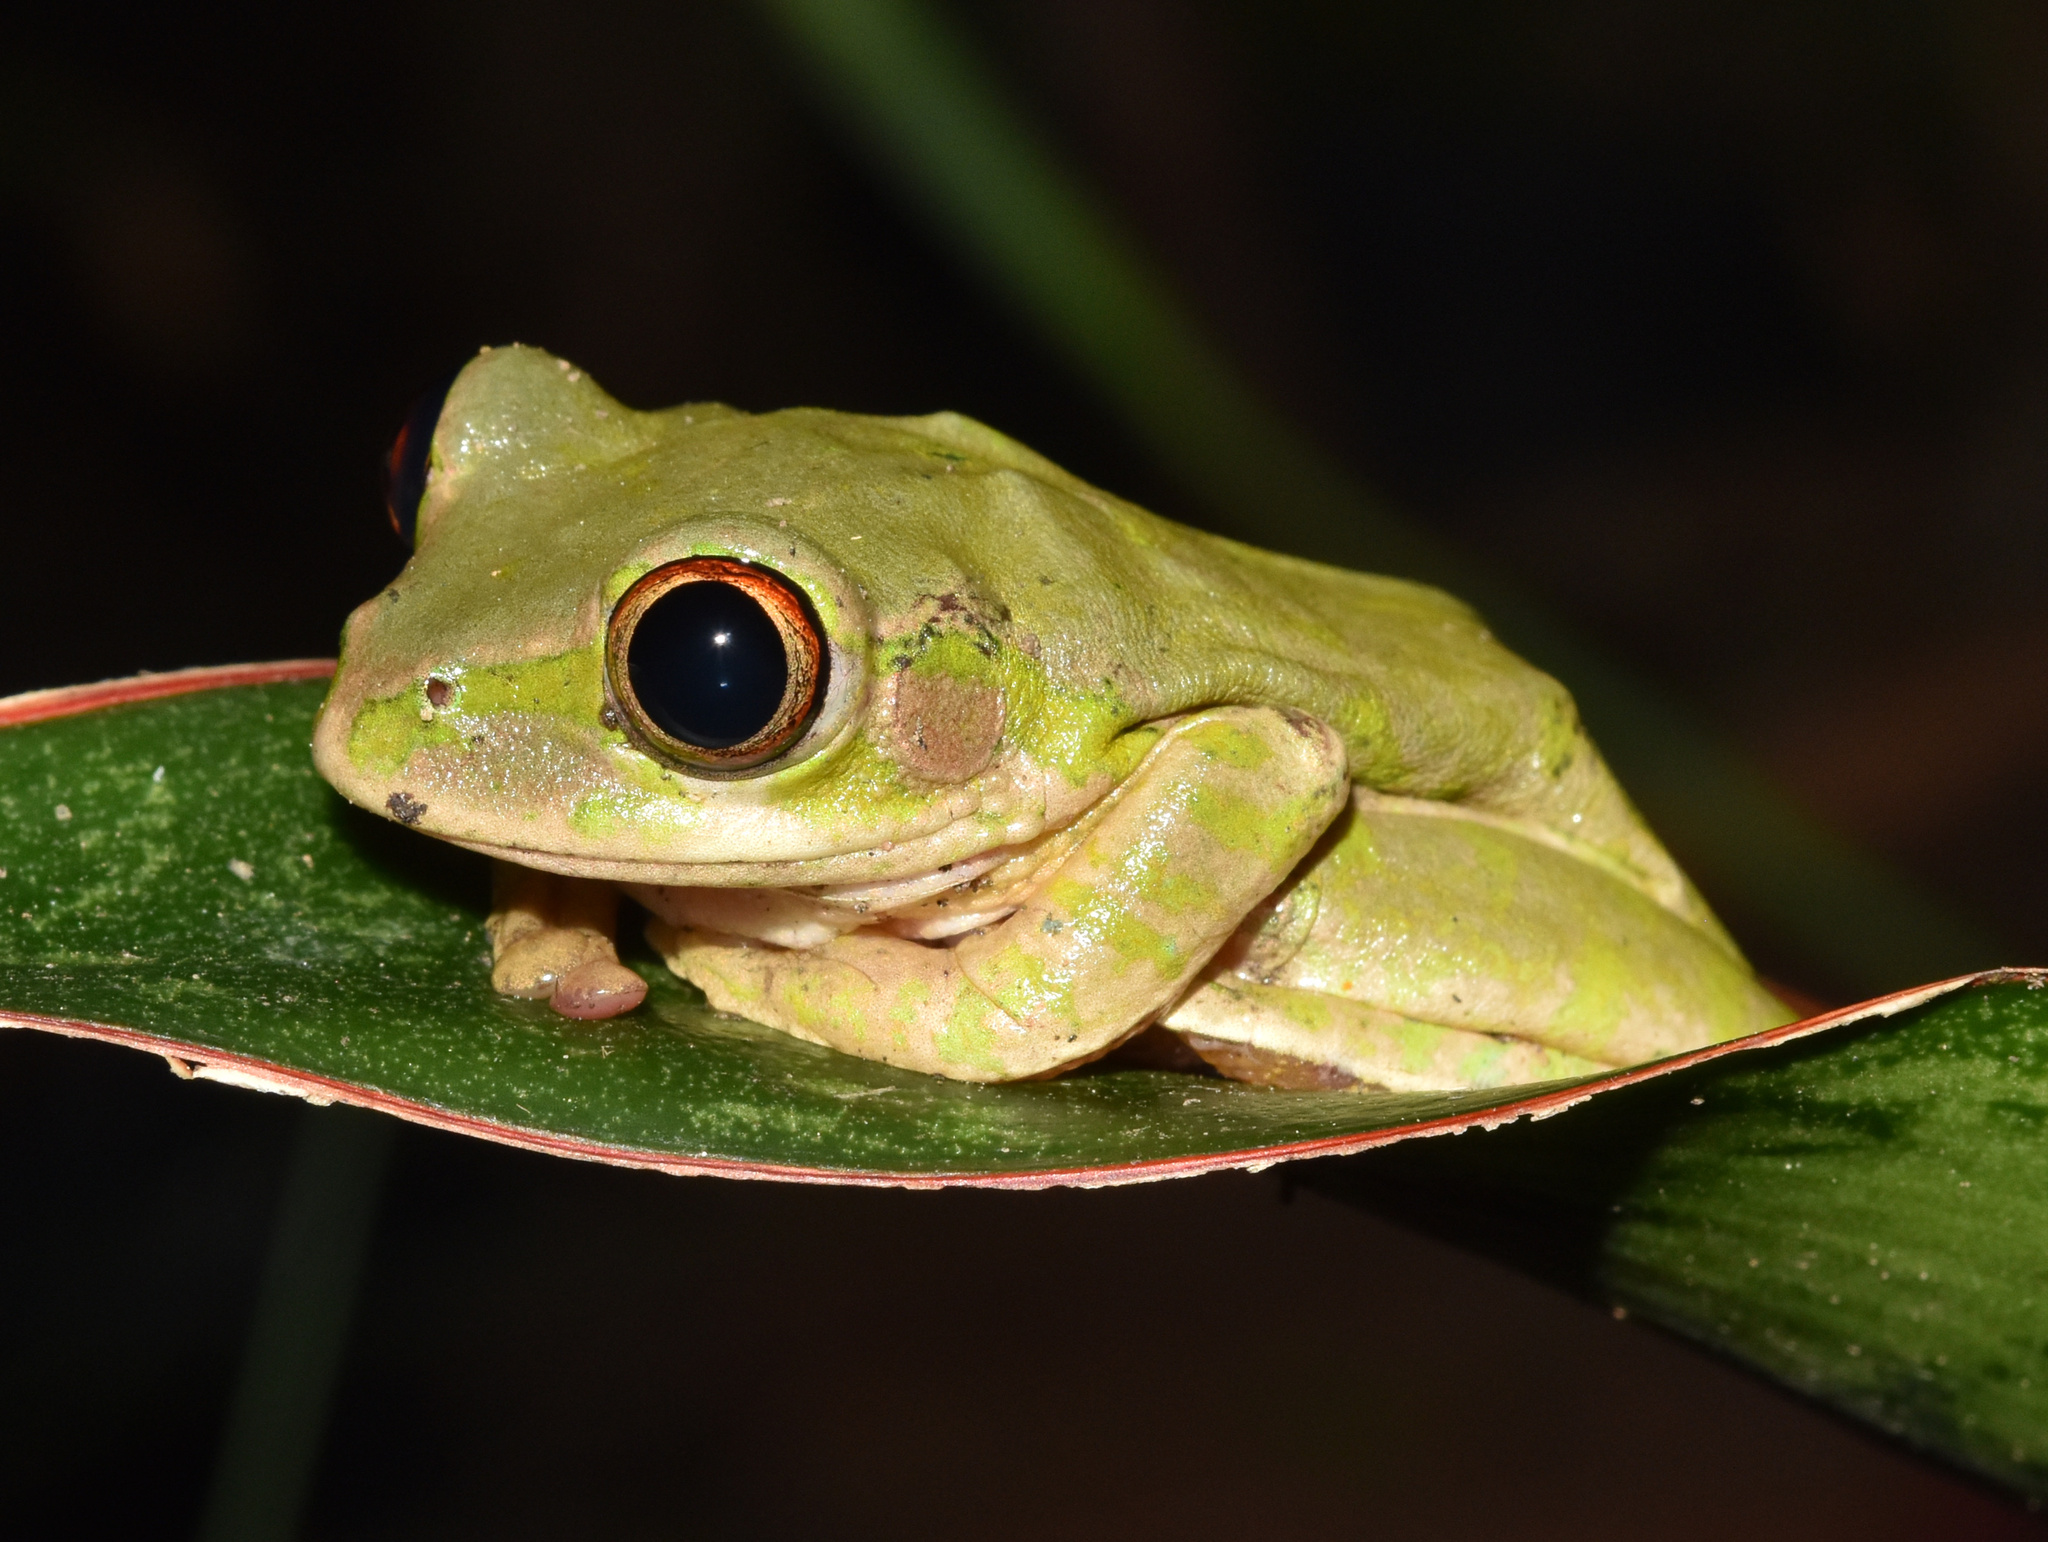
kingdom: Animalia
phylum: Chordata
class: Amphibia
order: Anura
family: Arthroleptidae
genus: Leptopelis
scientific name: Leptopelis natalensis
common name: Natal tree frog
